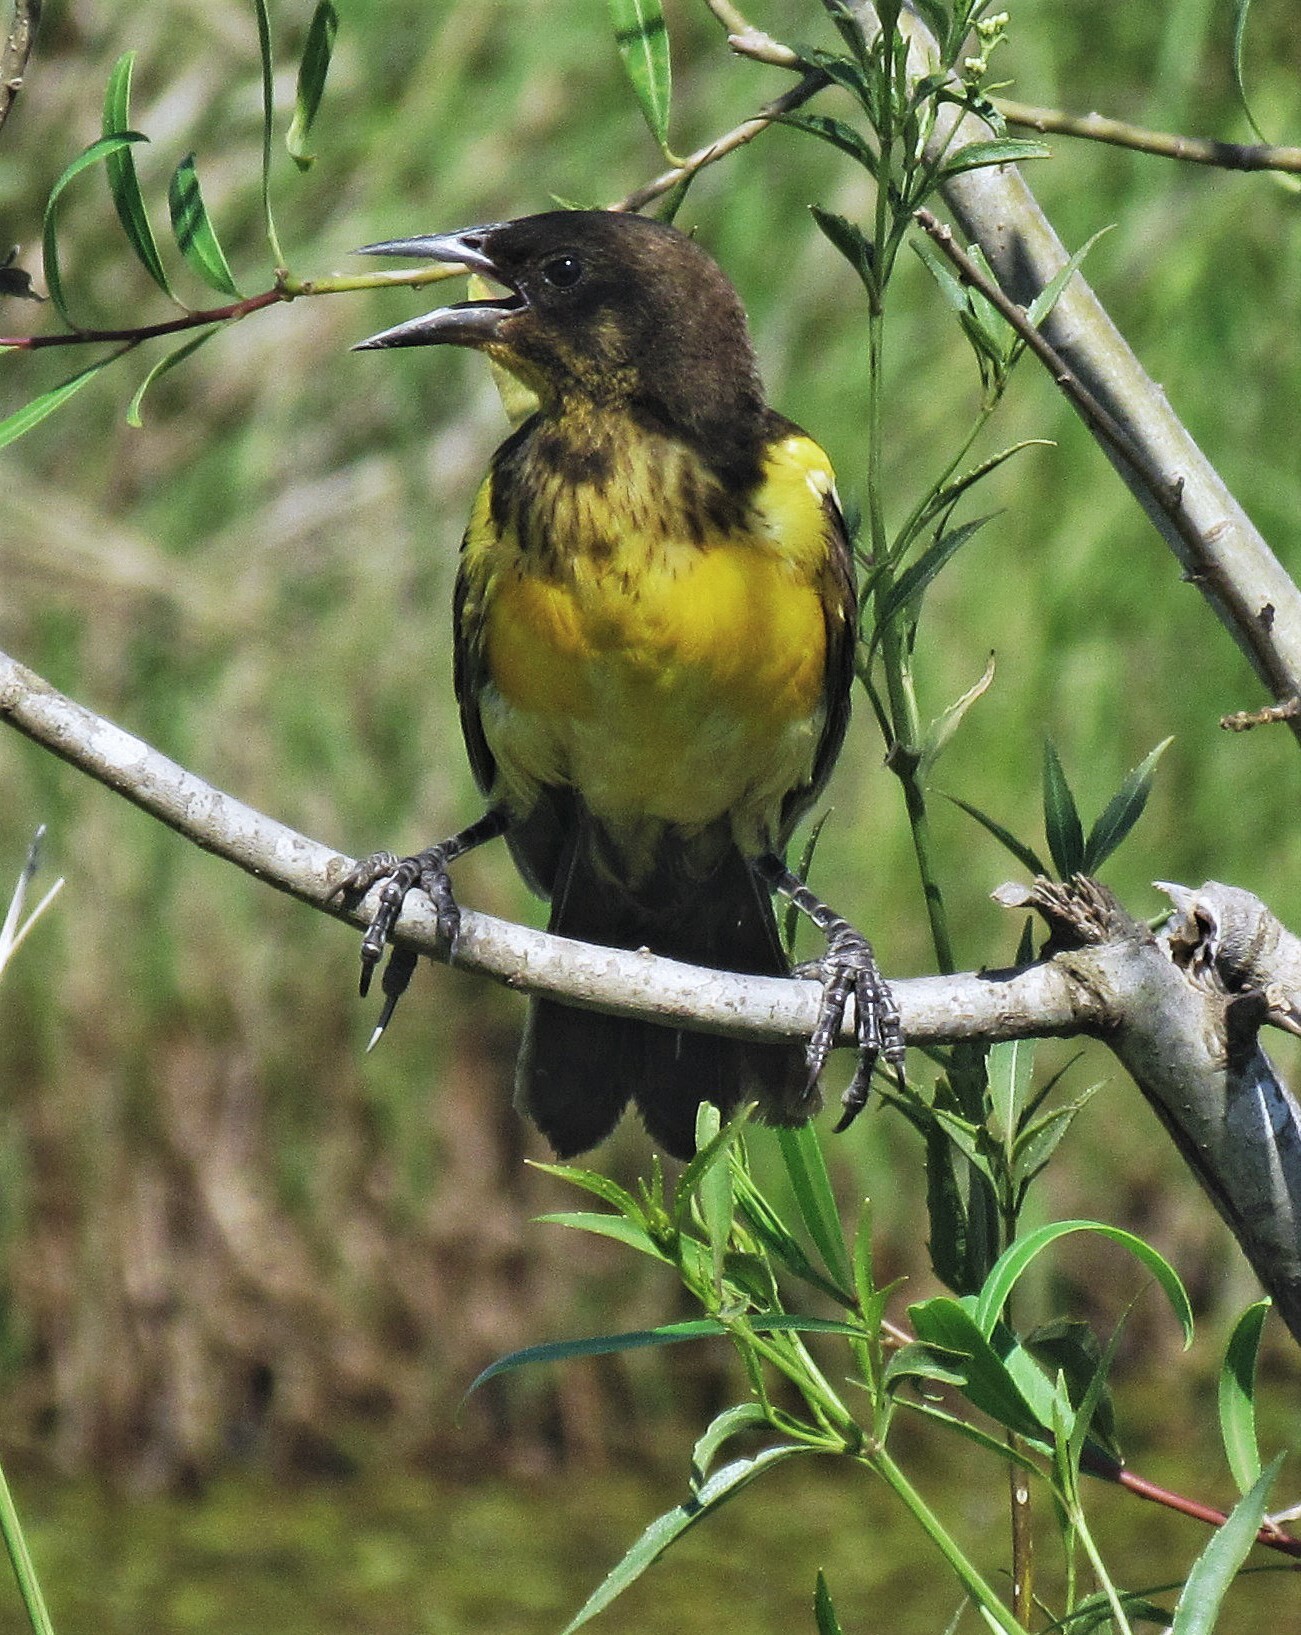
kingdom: Animalia
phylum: Chordata
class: Aves
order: Passeriformes
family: Icteridae
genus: Pseudoleistes
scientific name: Pseudoleistes guirahuro
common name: Yellow-rumped marshbird
